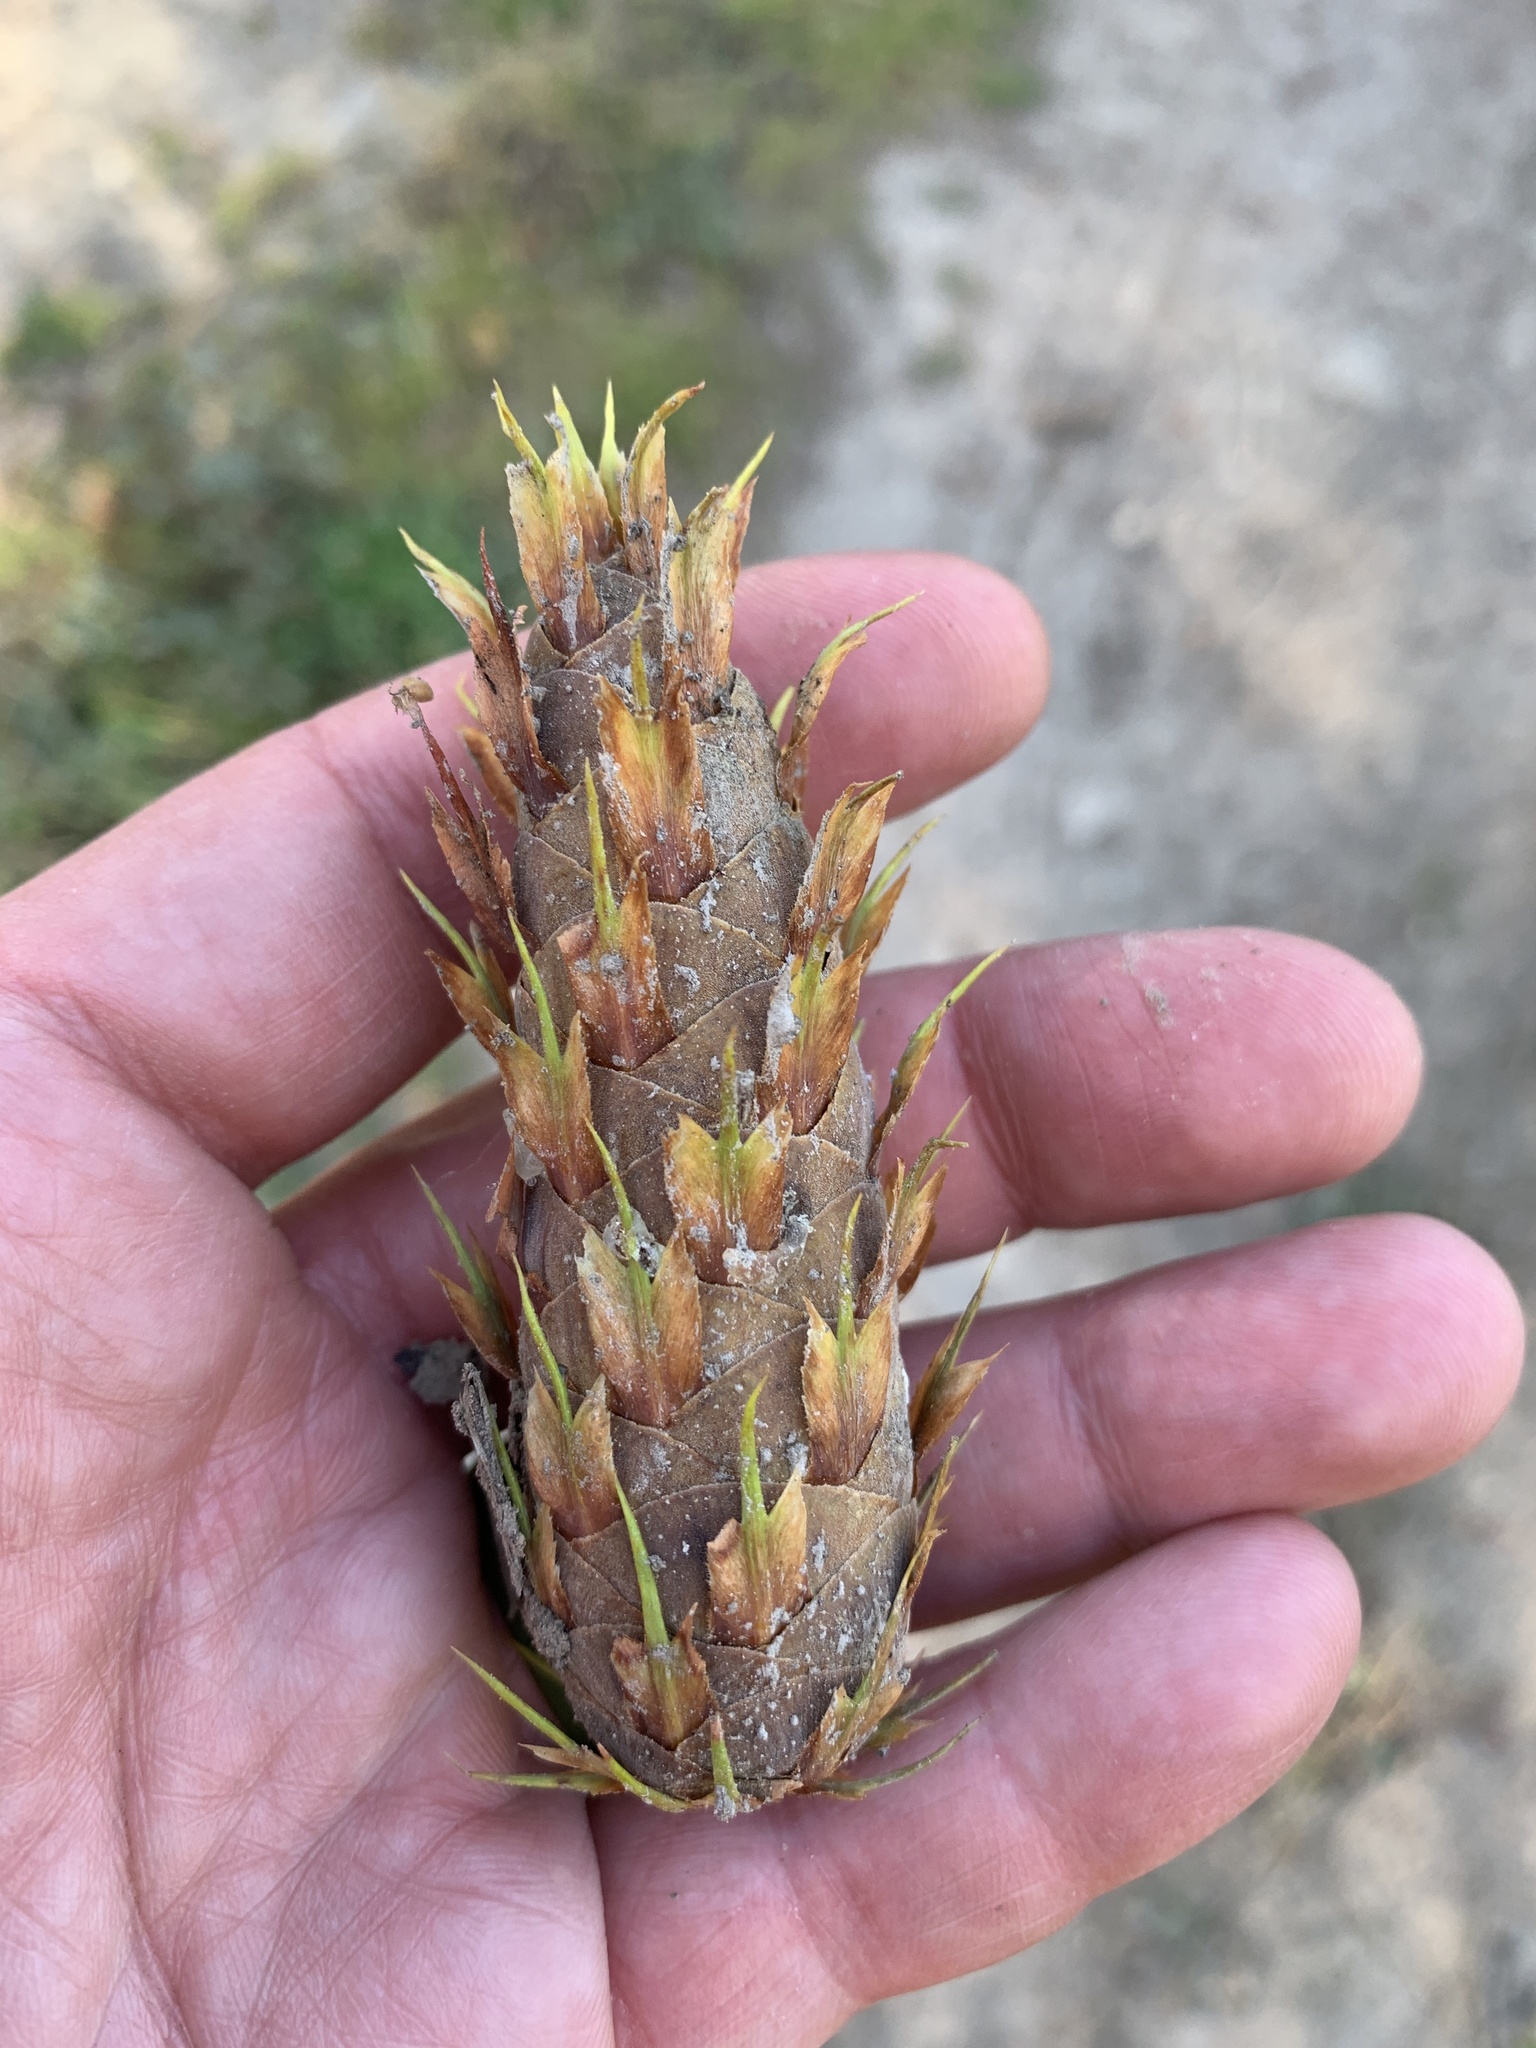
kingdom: Plantae
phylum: Tracheophyta
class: Pinopsida
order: Pinales
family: Pinaceae
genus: Pseudotsuga
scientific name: Pseudotsuga menziesii
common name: Douglas fir
